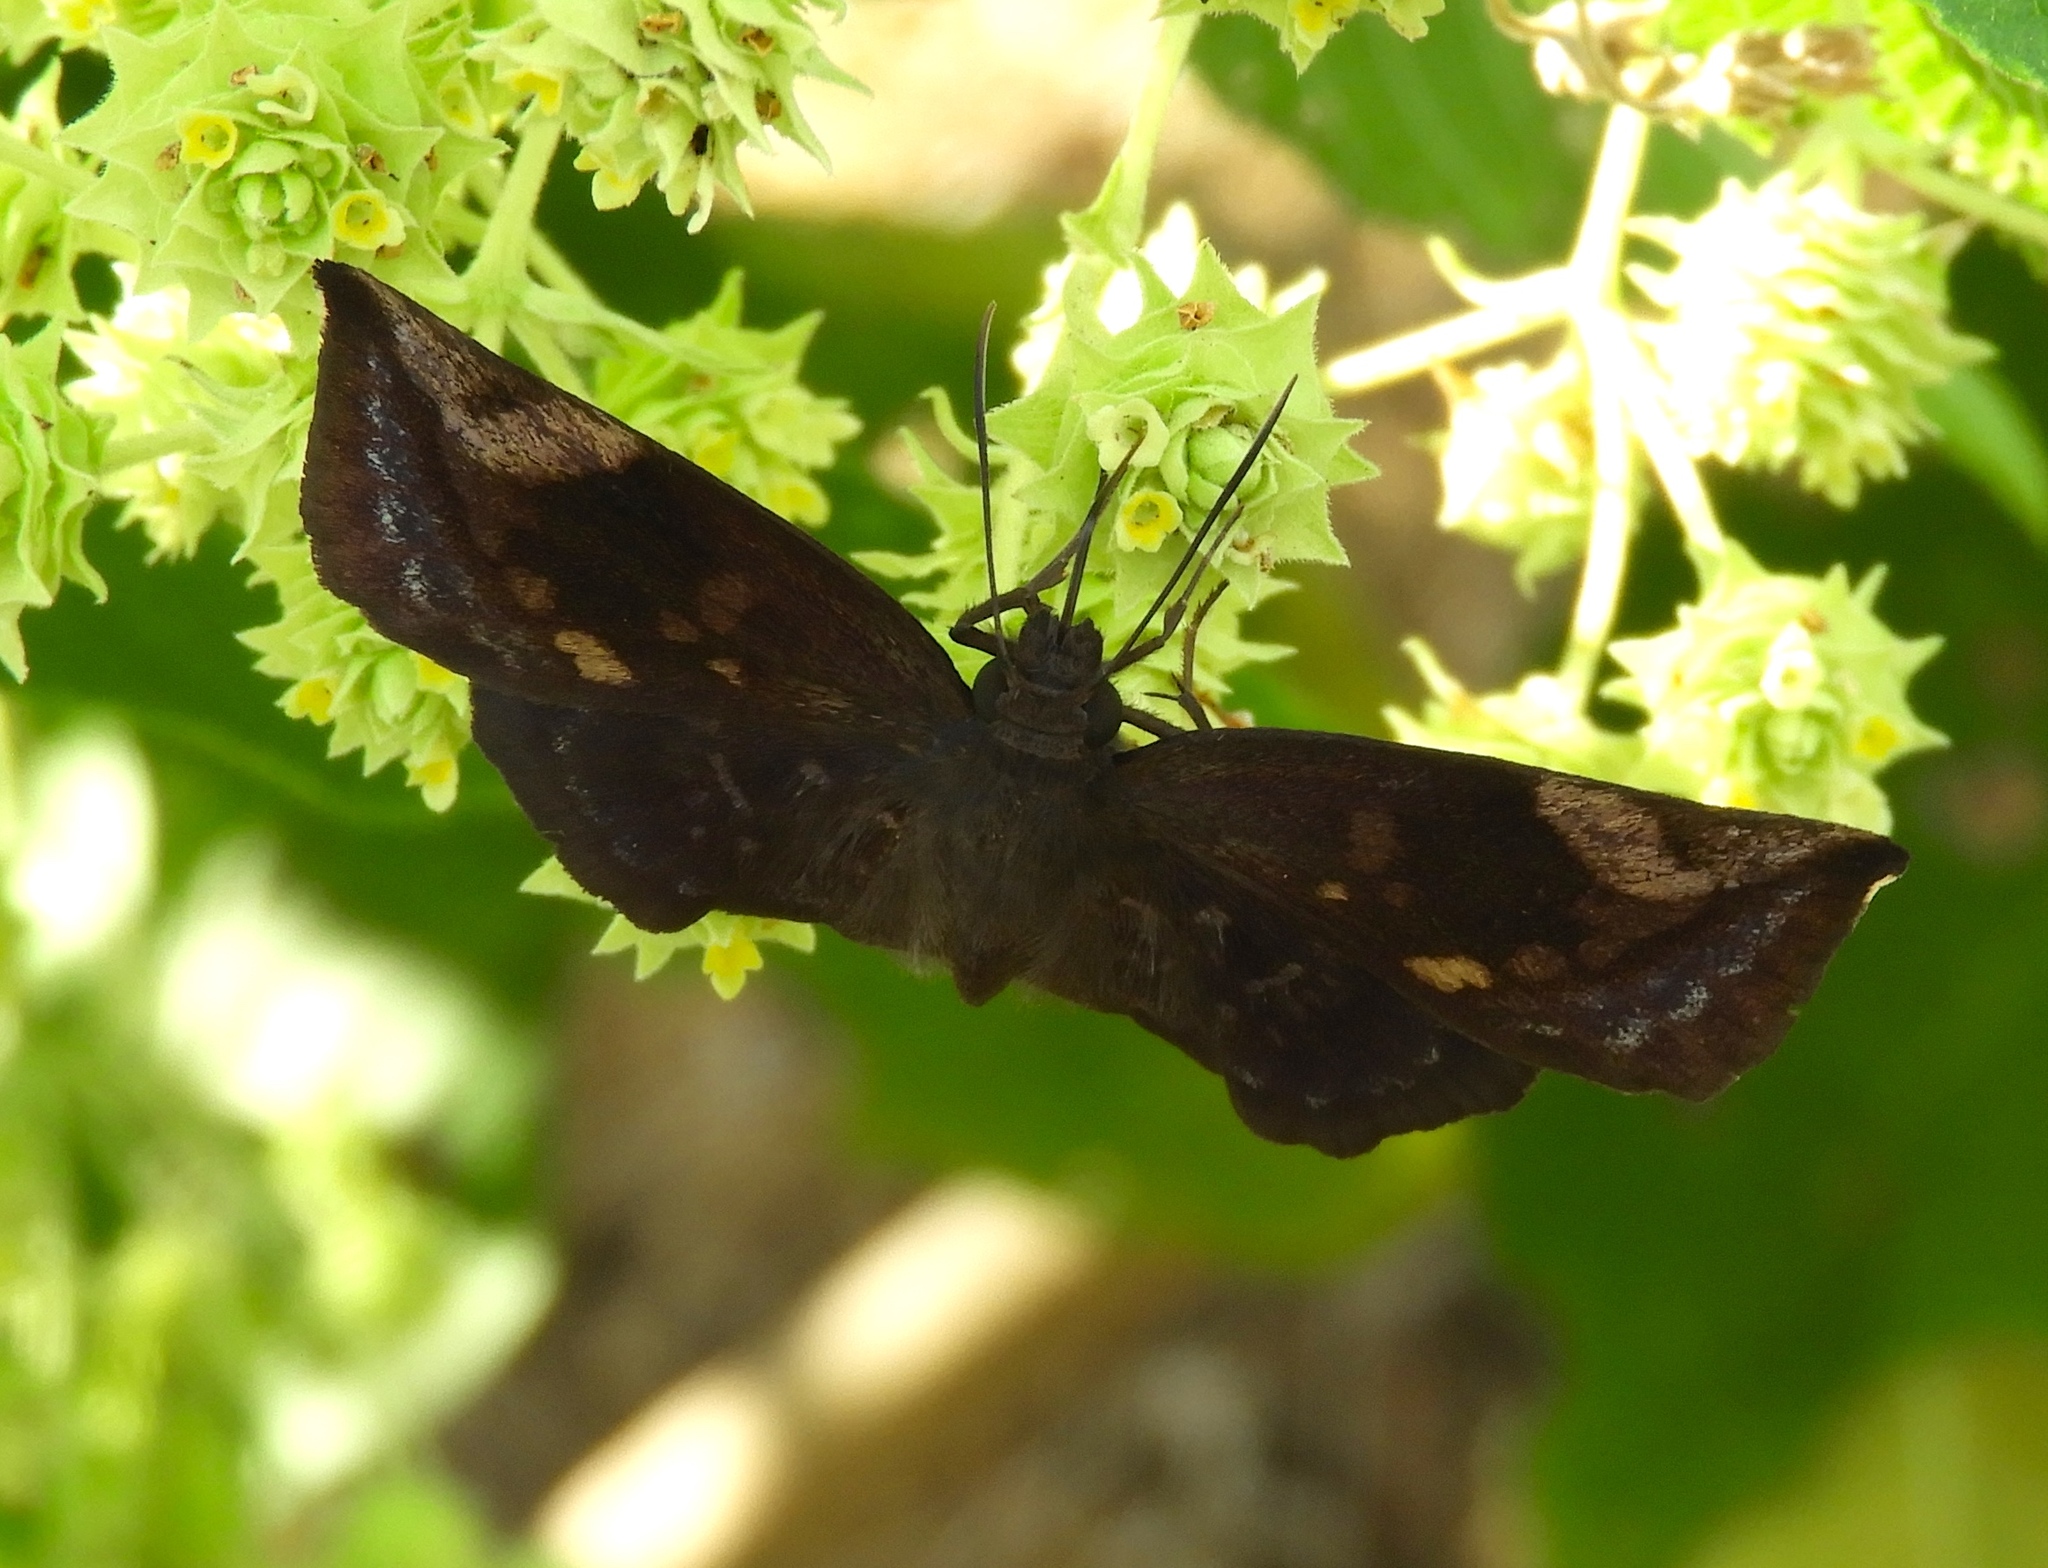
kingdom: Animalia
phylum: Arthropoda
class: Insecta
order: Lepidoptera
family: Hesperiidae
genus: Achlyodes
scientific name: Achlyodes thraso
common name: Sickle-winged skipper
